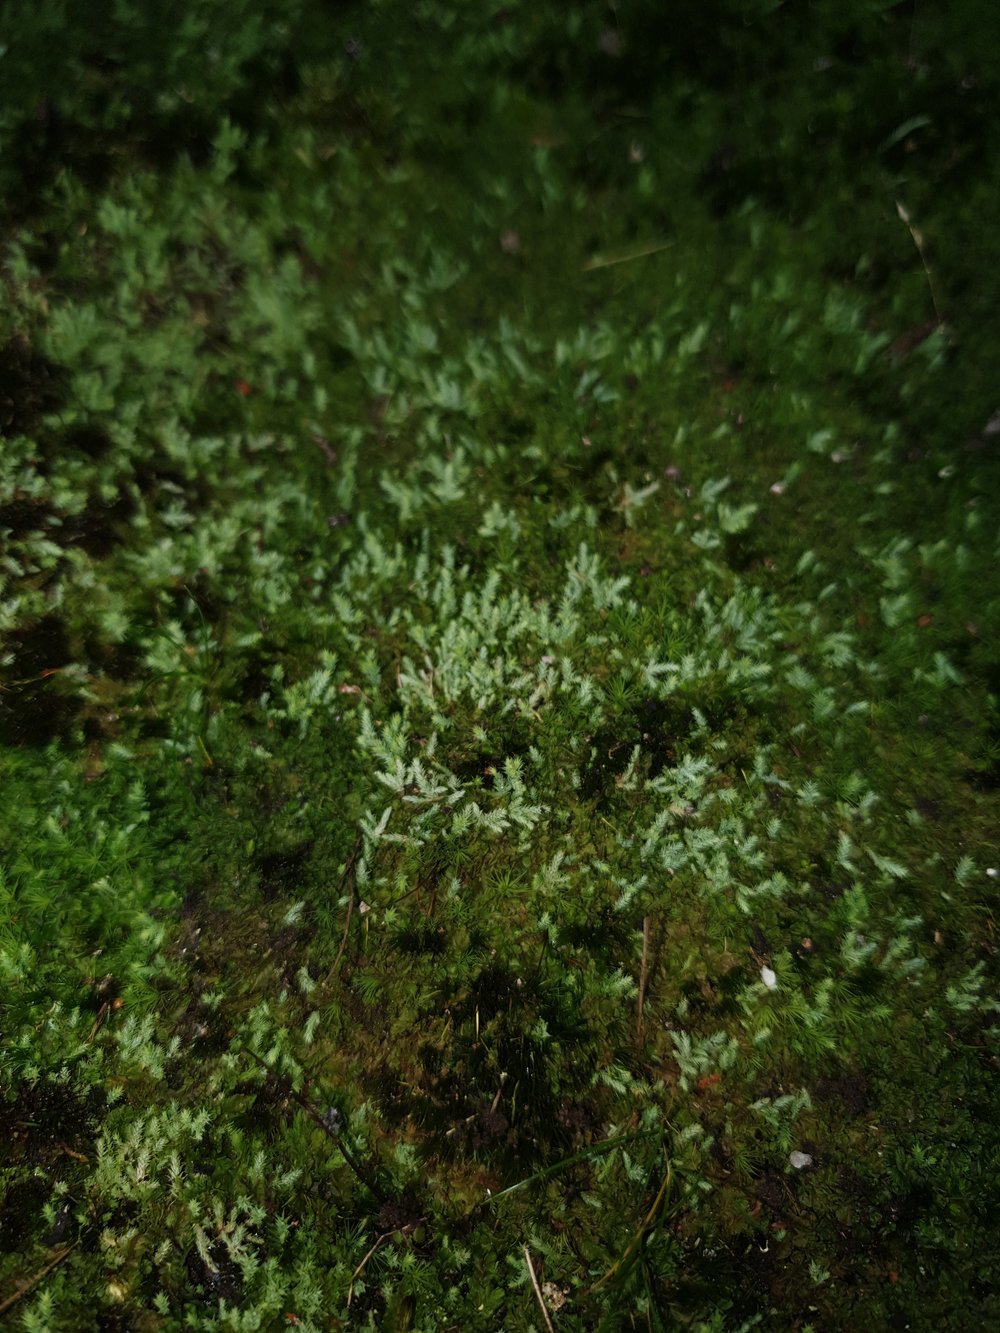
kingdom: Plantae
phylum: Bryophyta
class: Bryopsida
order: Bartramiales
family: Bartramiaceae
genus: Philonotis
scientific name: Philonotis scabrifolia
